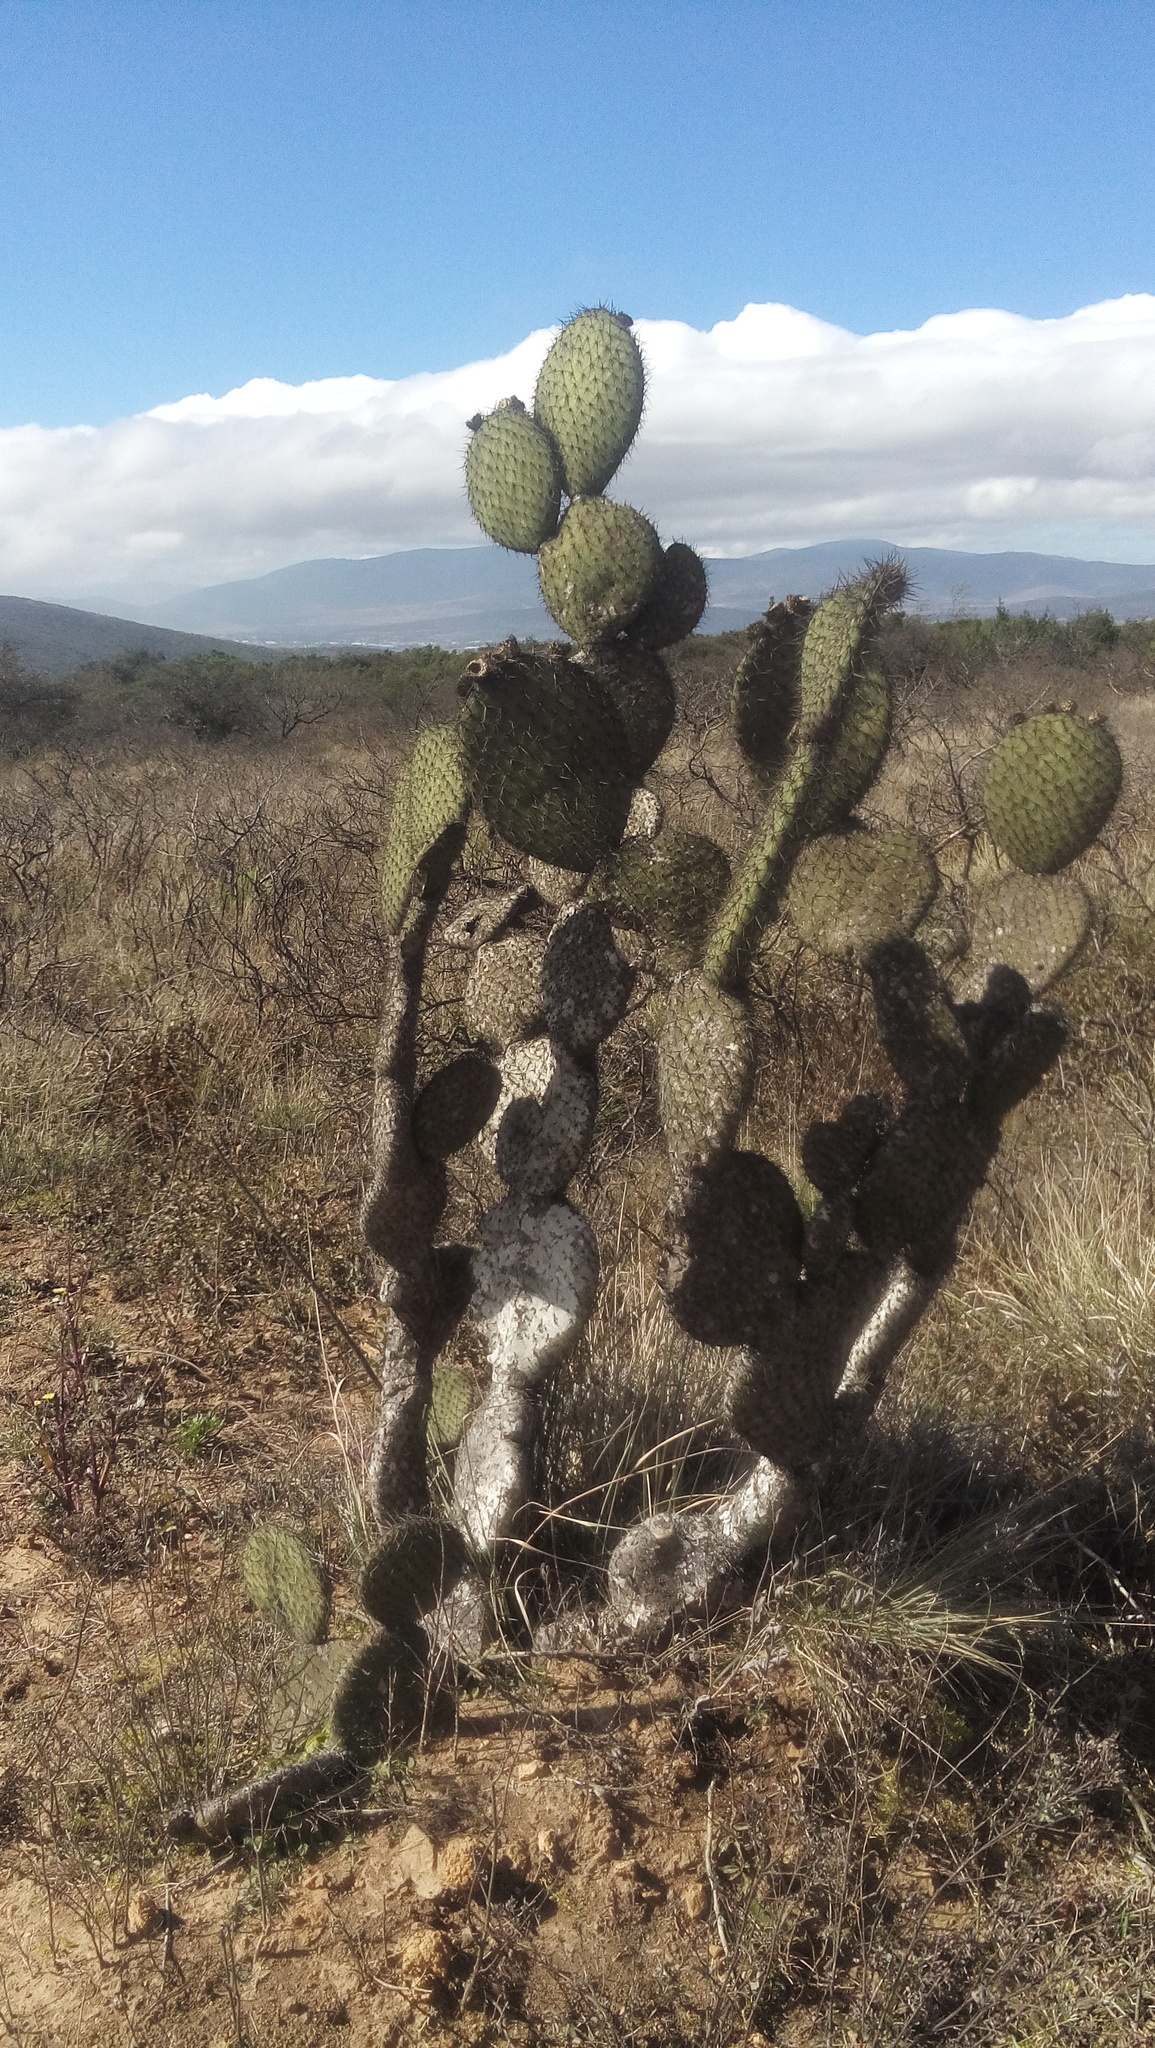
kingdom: Plantae
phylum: Tracheophyta
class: Magnoliopsida
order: Caryophyllales
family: Cactaceae
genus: Opuntia
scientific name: Opuntia leucotricha
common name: Arborescent pricklypear
